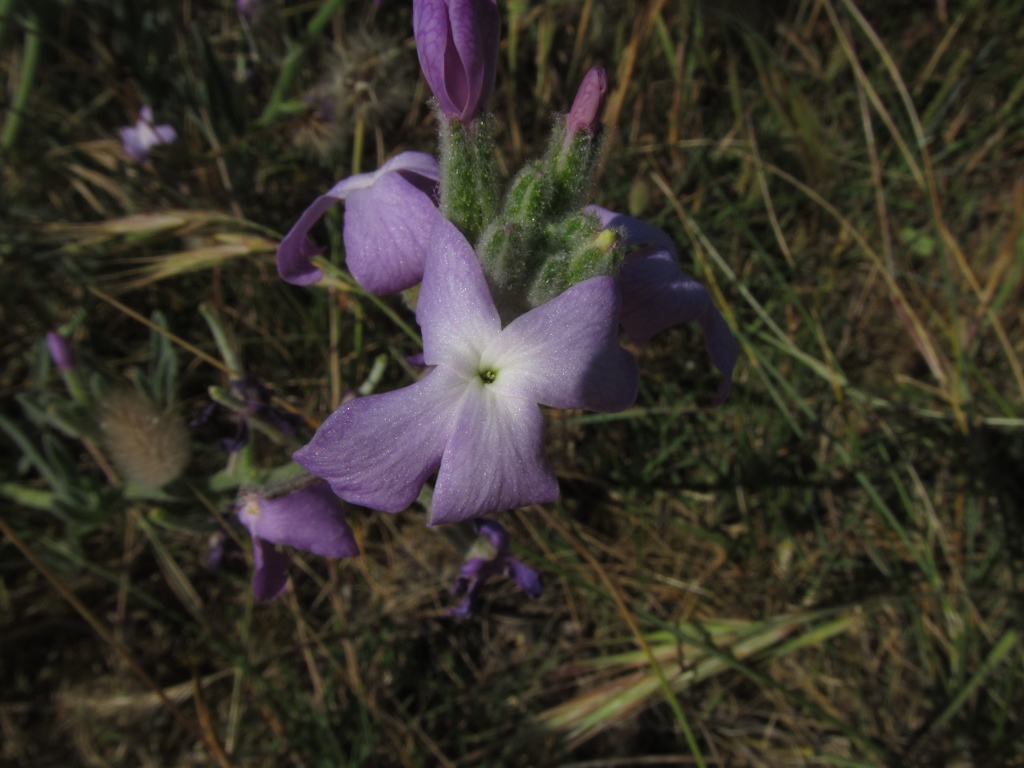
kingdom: Plantae
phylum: Tracheophyta
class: Magnoliopsida
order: Brassicales
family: Brassicaceae
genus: Matthiola
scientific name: Matthiola sinuata
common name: Sea stock
